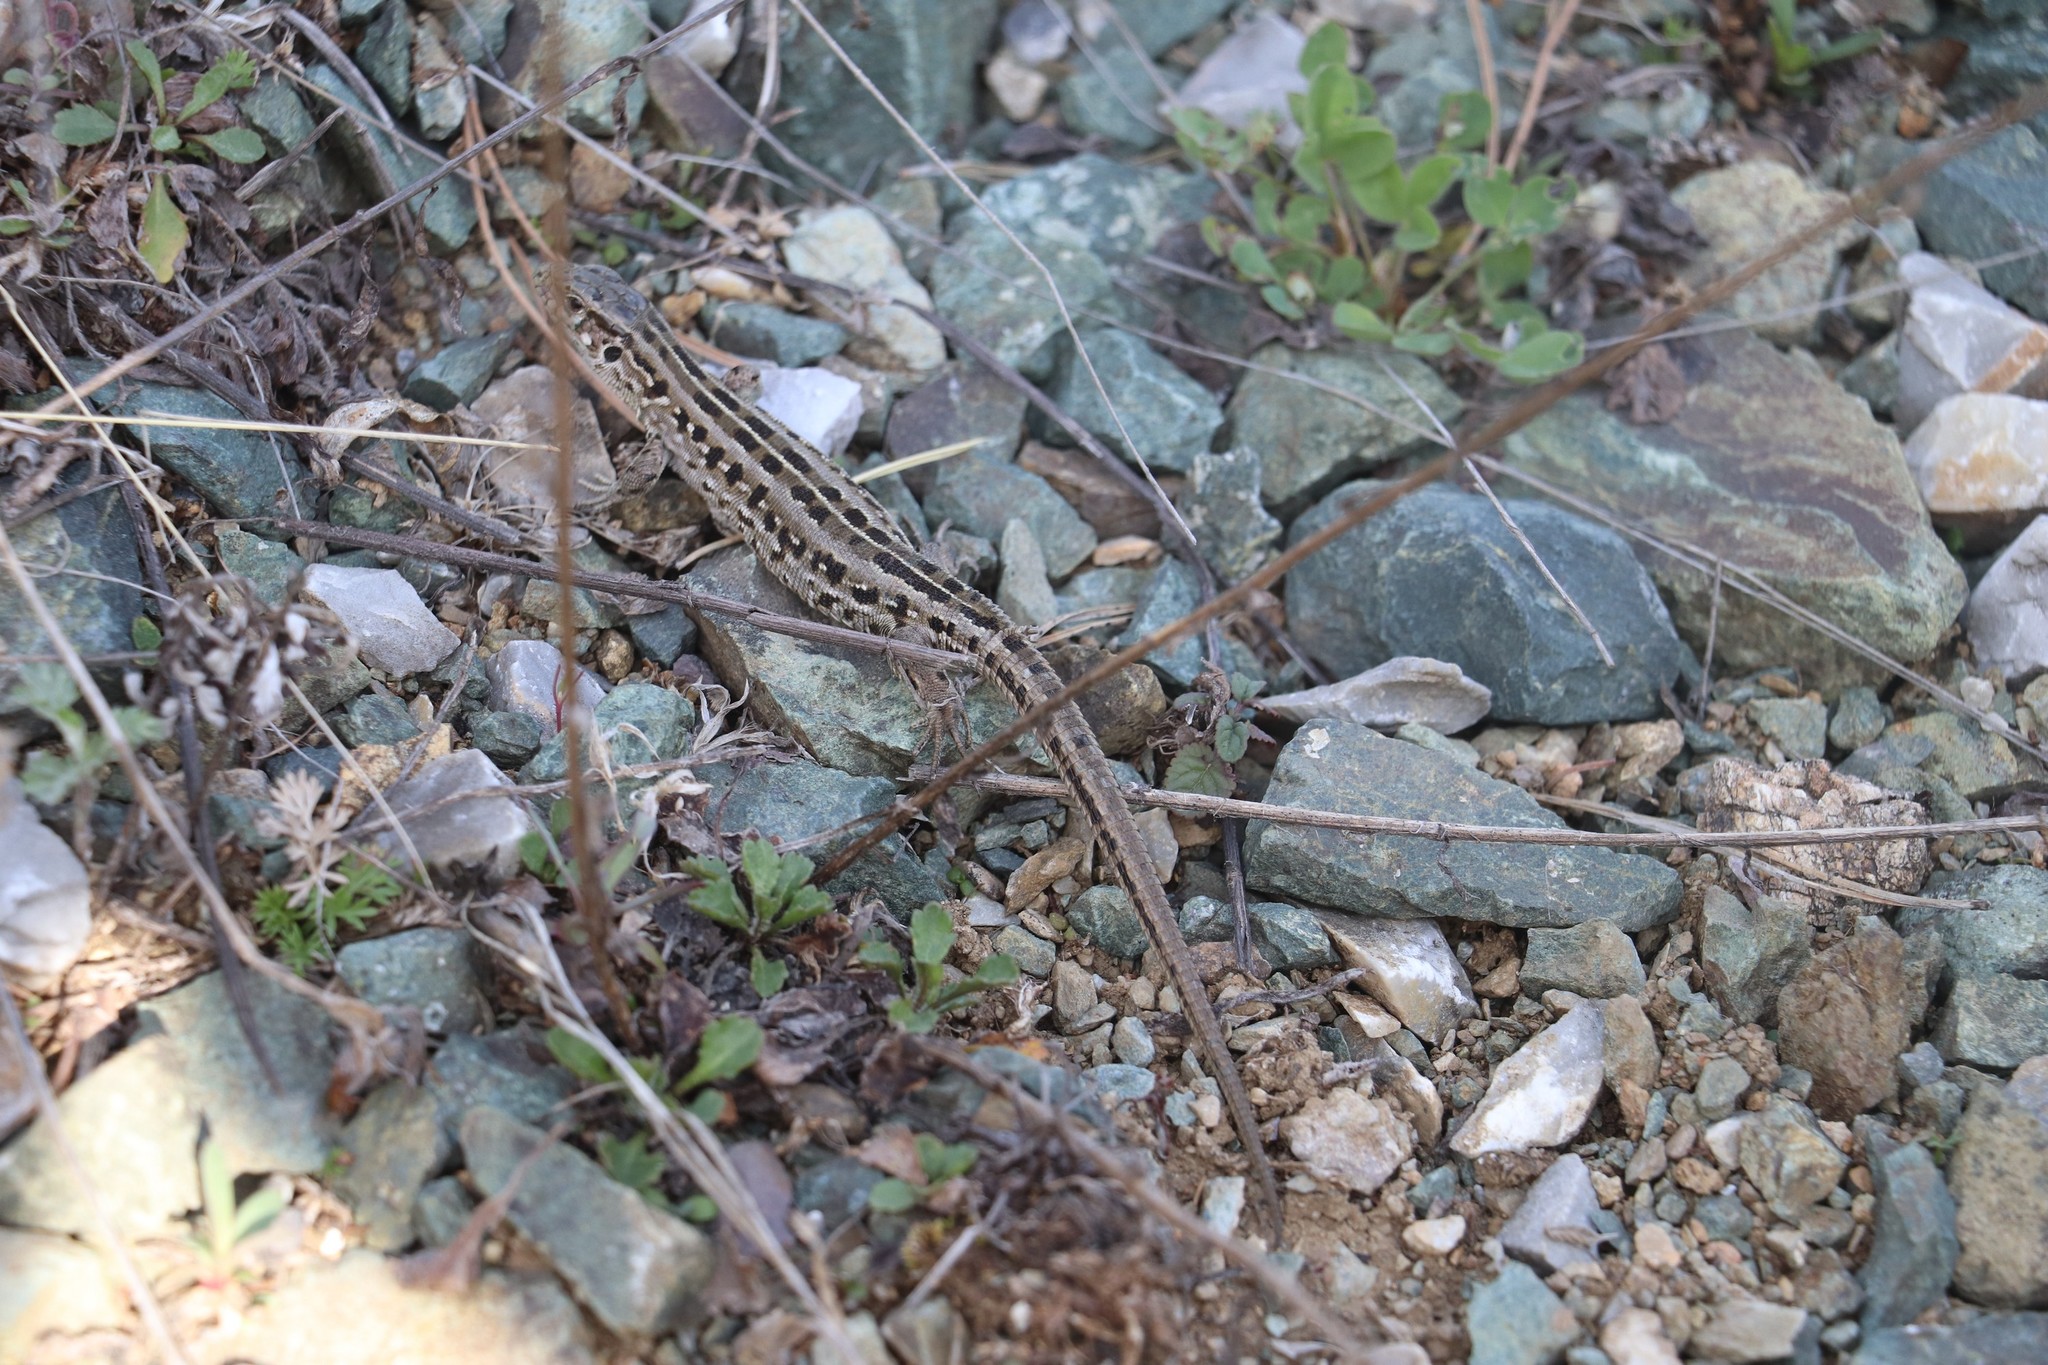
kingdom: Animalia
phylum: Chordata
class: Squamata
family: Lacertidae
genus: Lacerta
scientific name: Lacerta agilis
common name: Sand lizard
